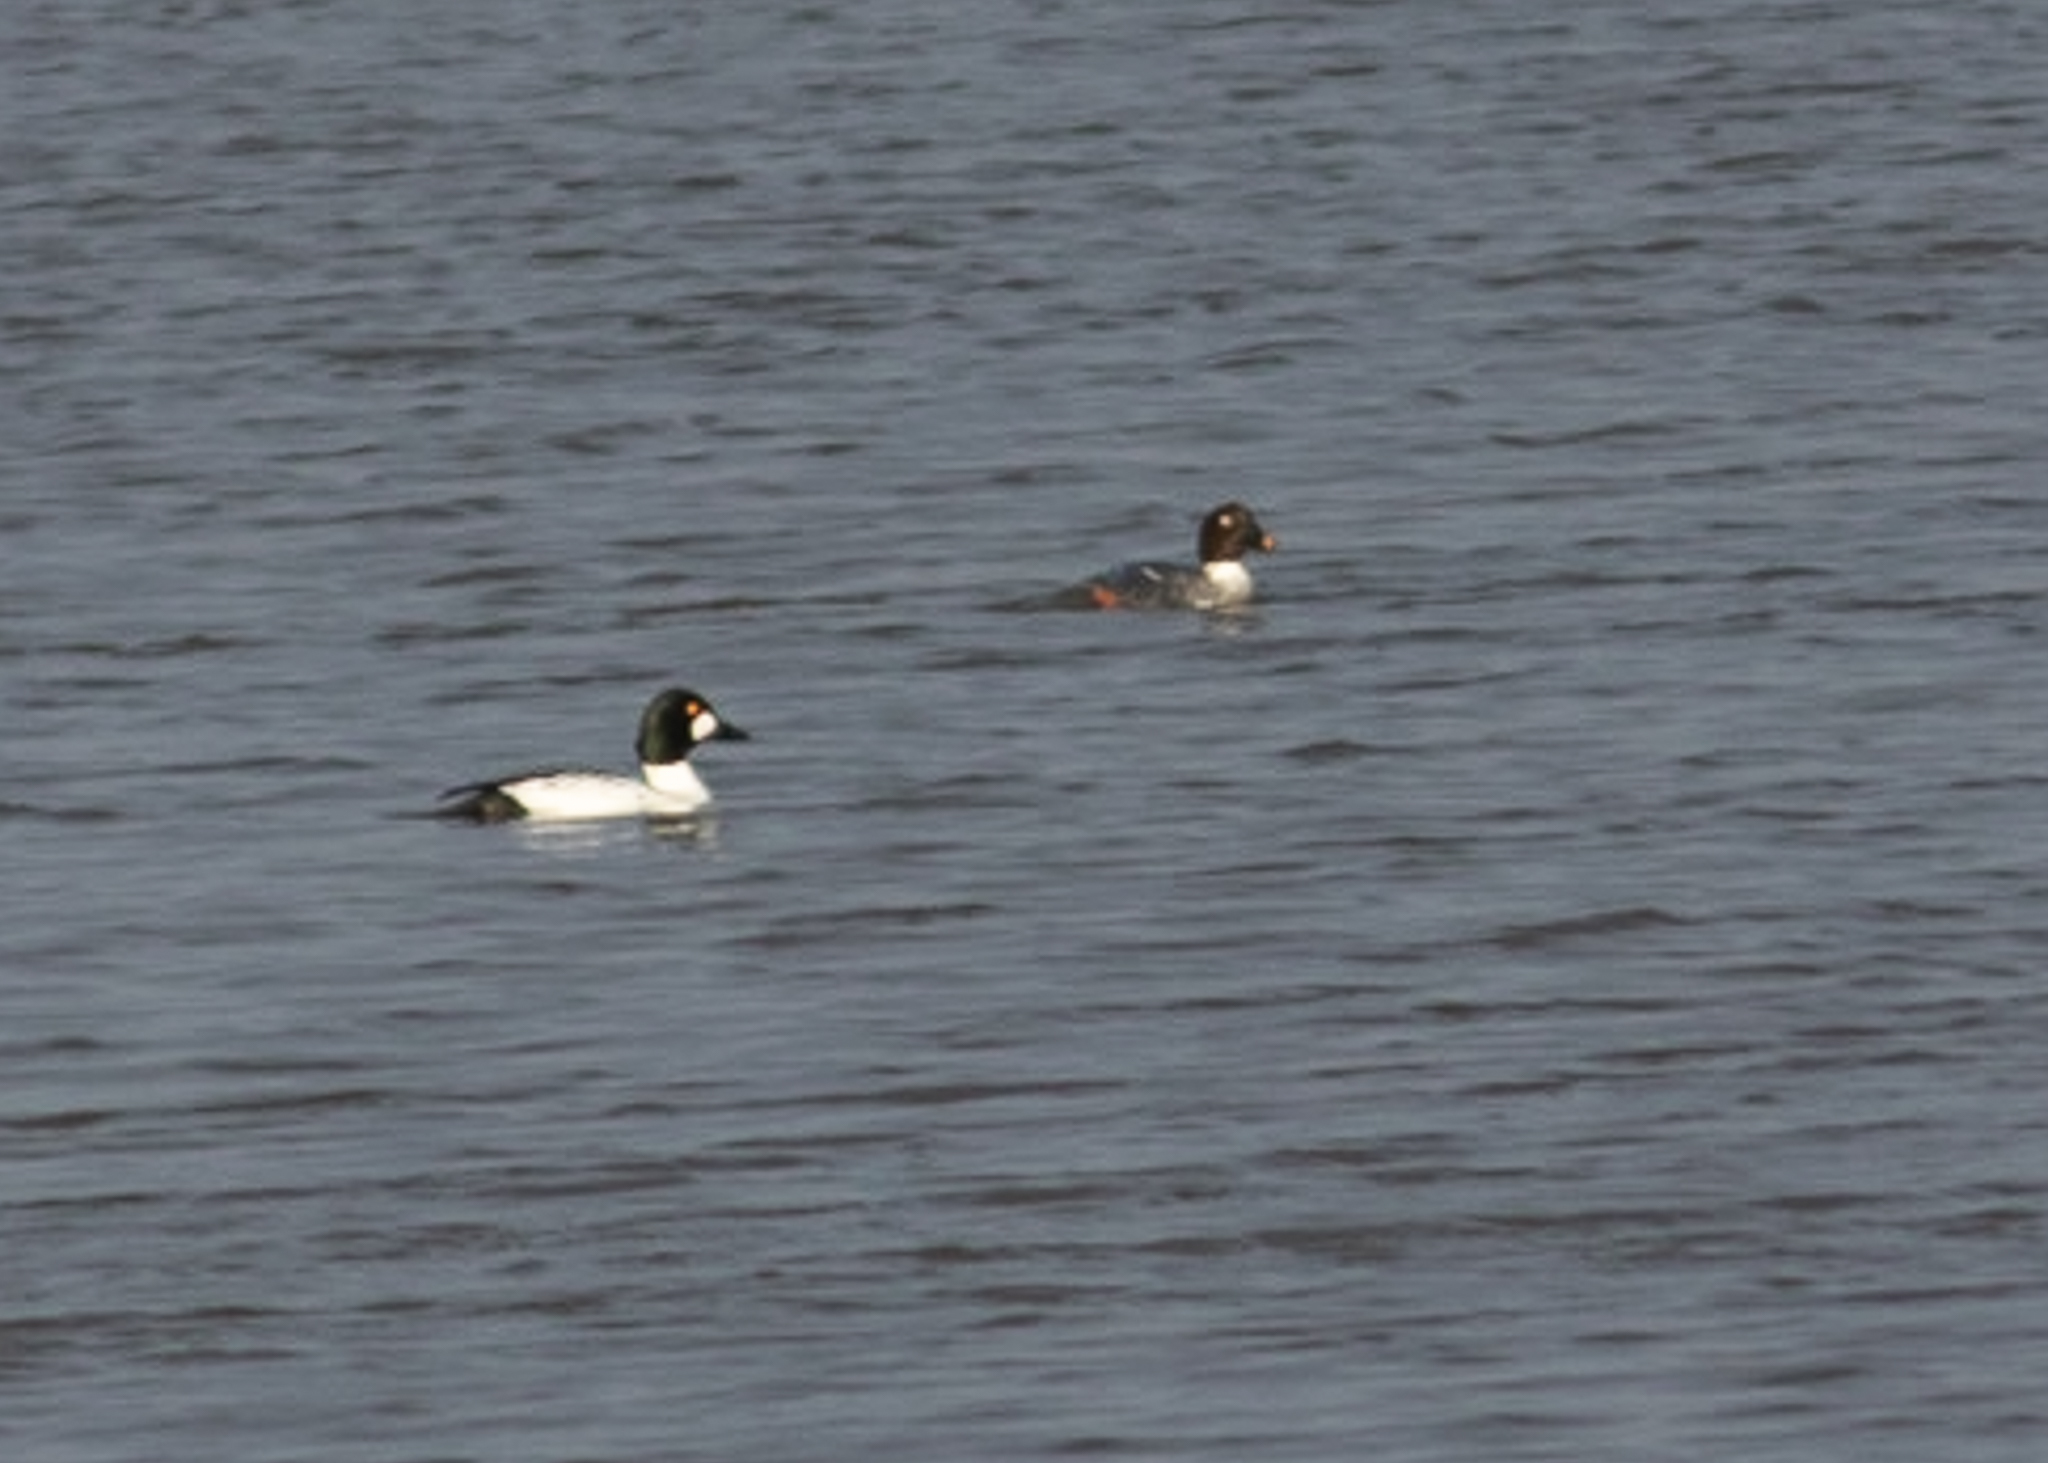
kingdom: Animalia
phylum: Chordata
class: Aves
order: Anseriformes
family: Anatidae
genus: Bucephala
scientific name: Bucephala clangula
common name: Common goldeneye
